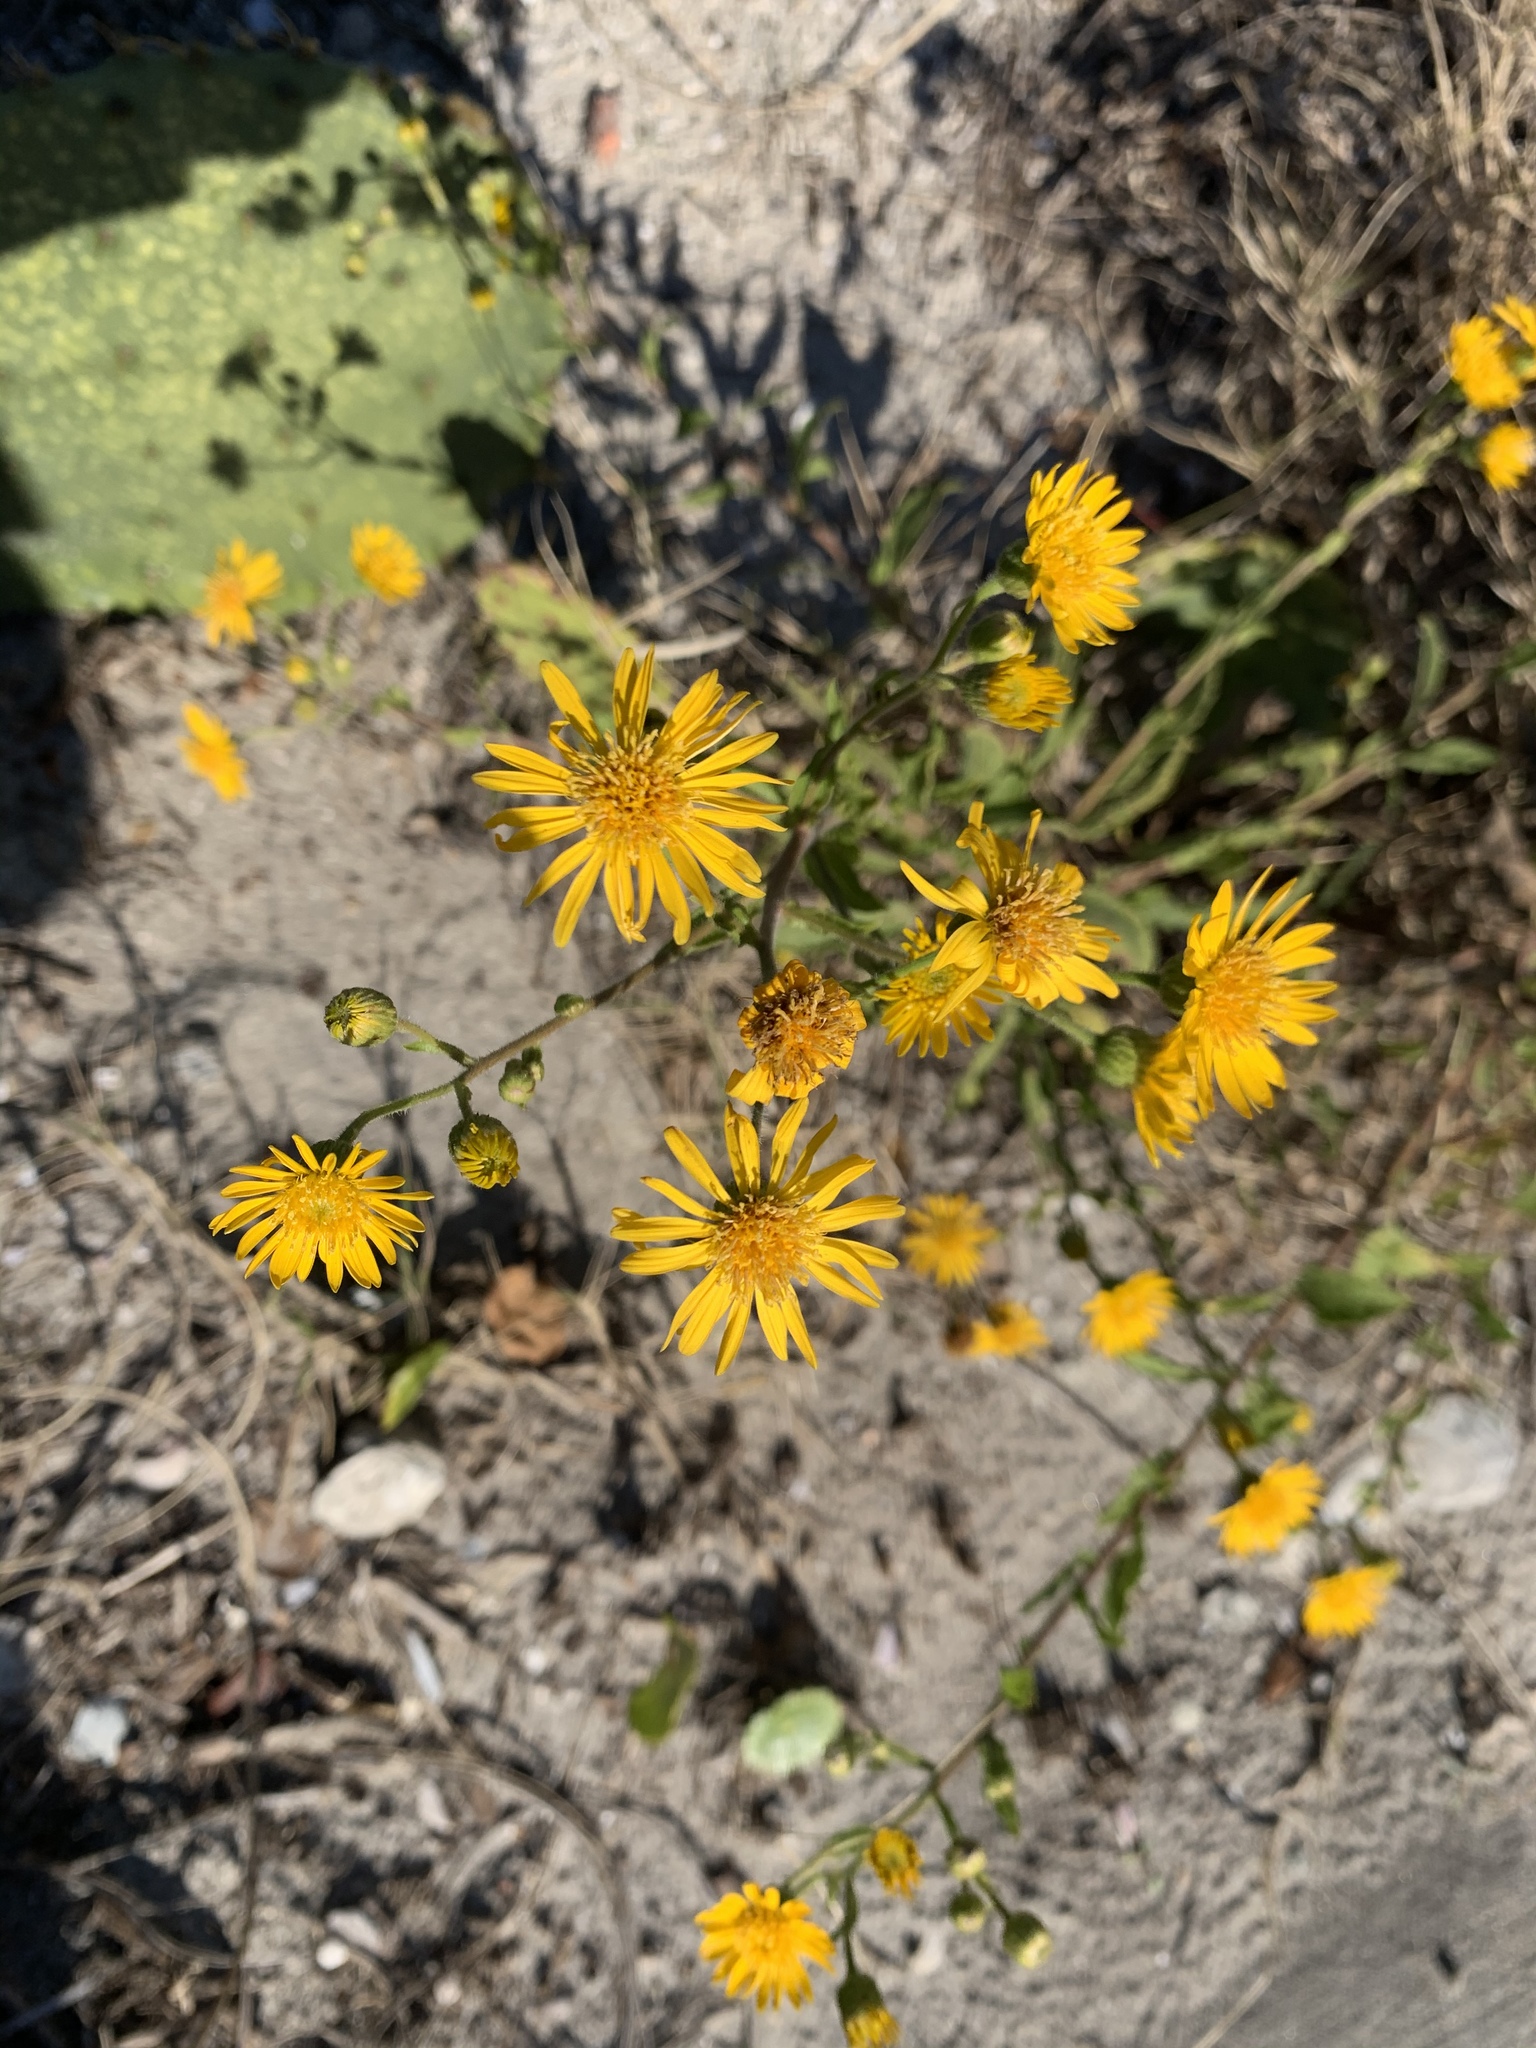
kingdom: Plantae
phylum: Tracheophyta
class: Magnoliopsida
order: Asterales
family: Asteraceae
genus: Heterotheca
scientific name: Heterotheca subaxillaris
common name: Camphorweed
